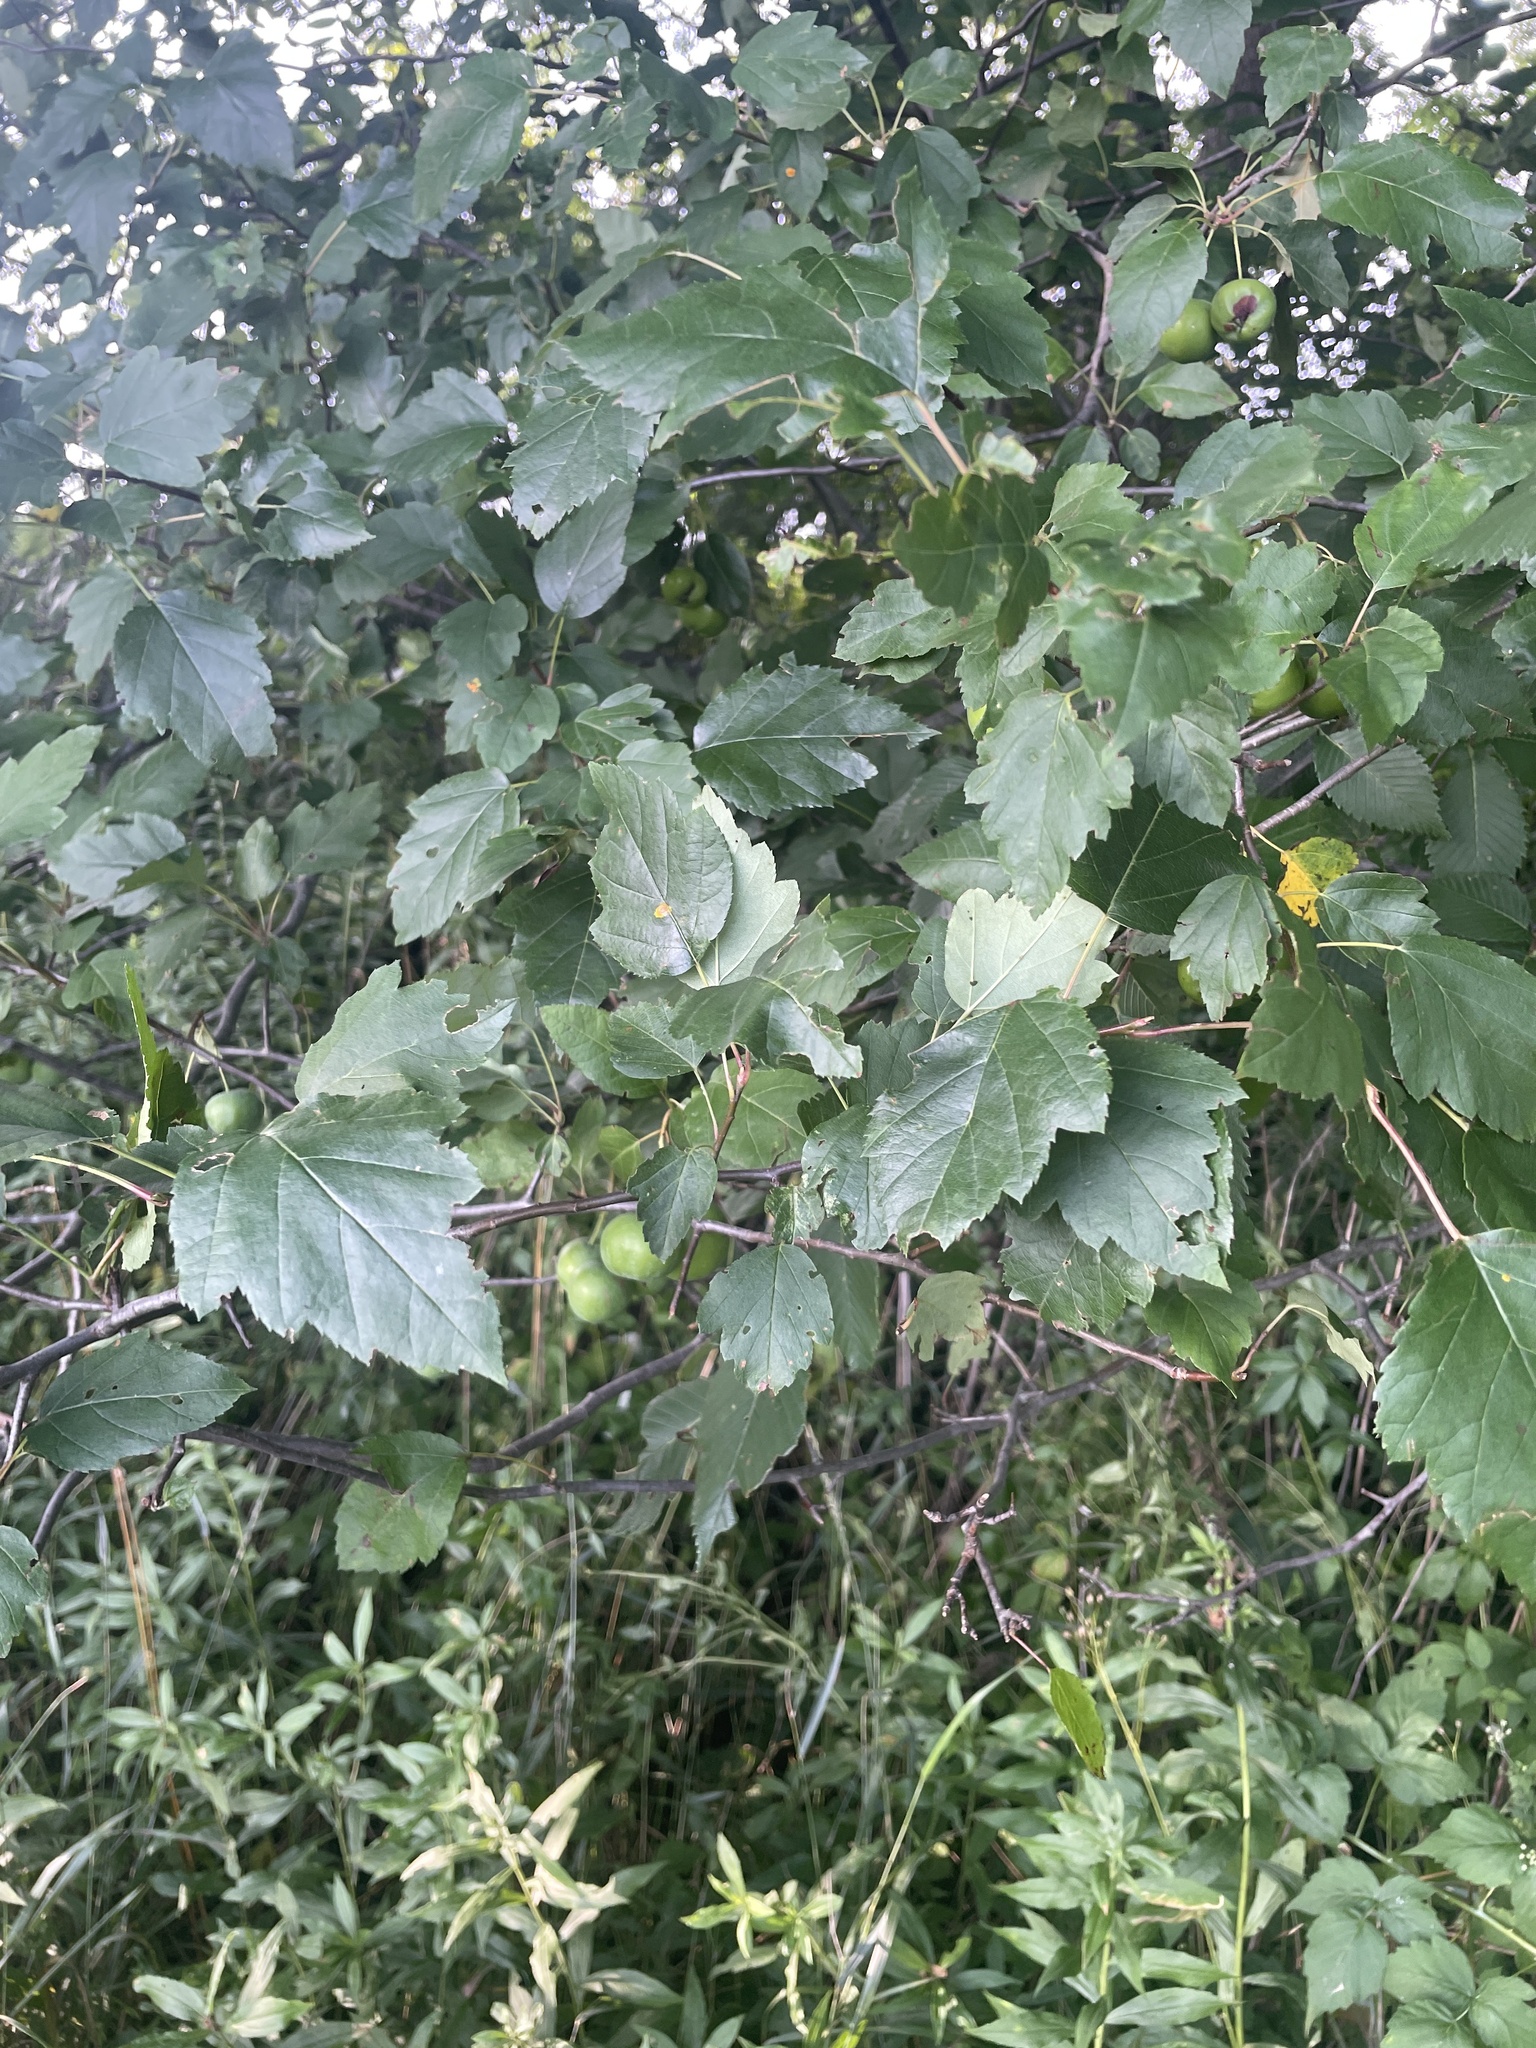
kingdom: Plantae
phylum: Tracheophyta
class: Magnoliopsida
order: Rosales
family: Rosaceae
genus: Malus
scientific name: Malus coronaria
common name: Sweet crab apple
